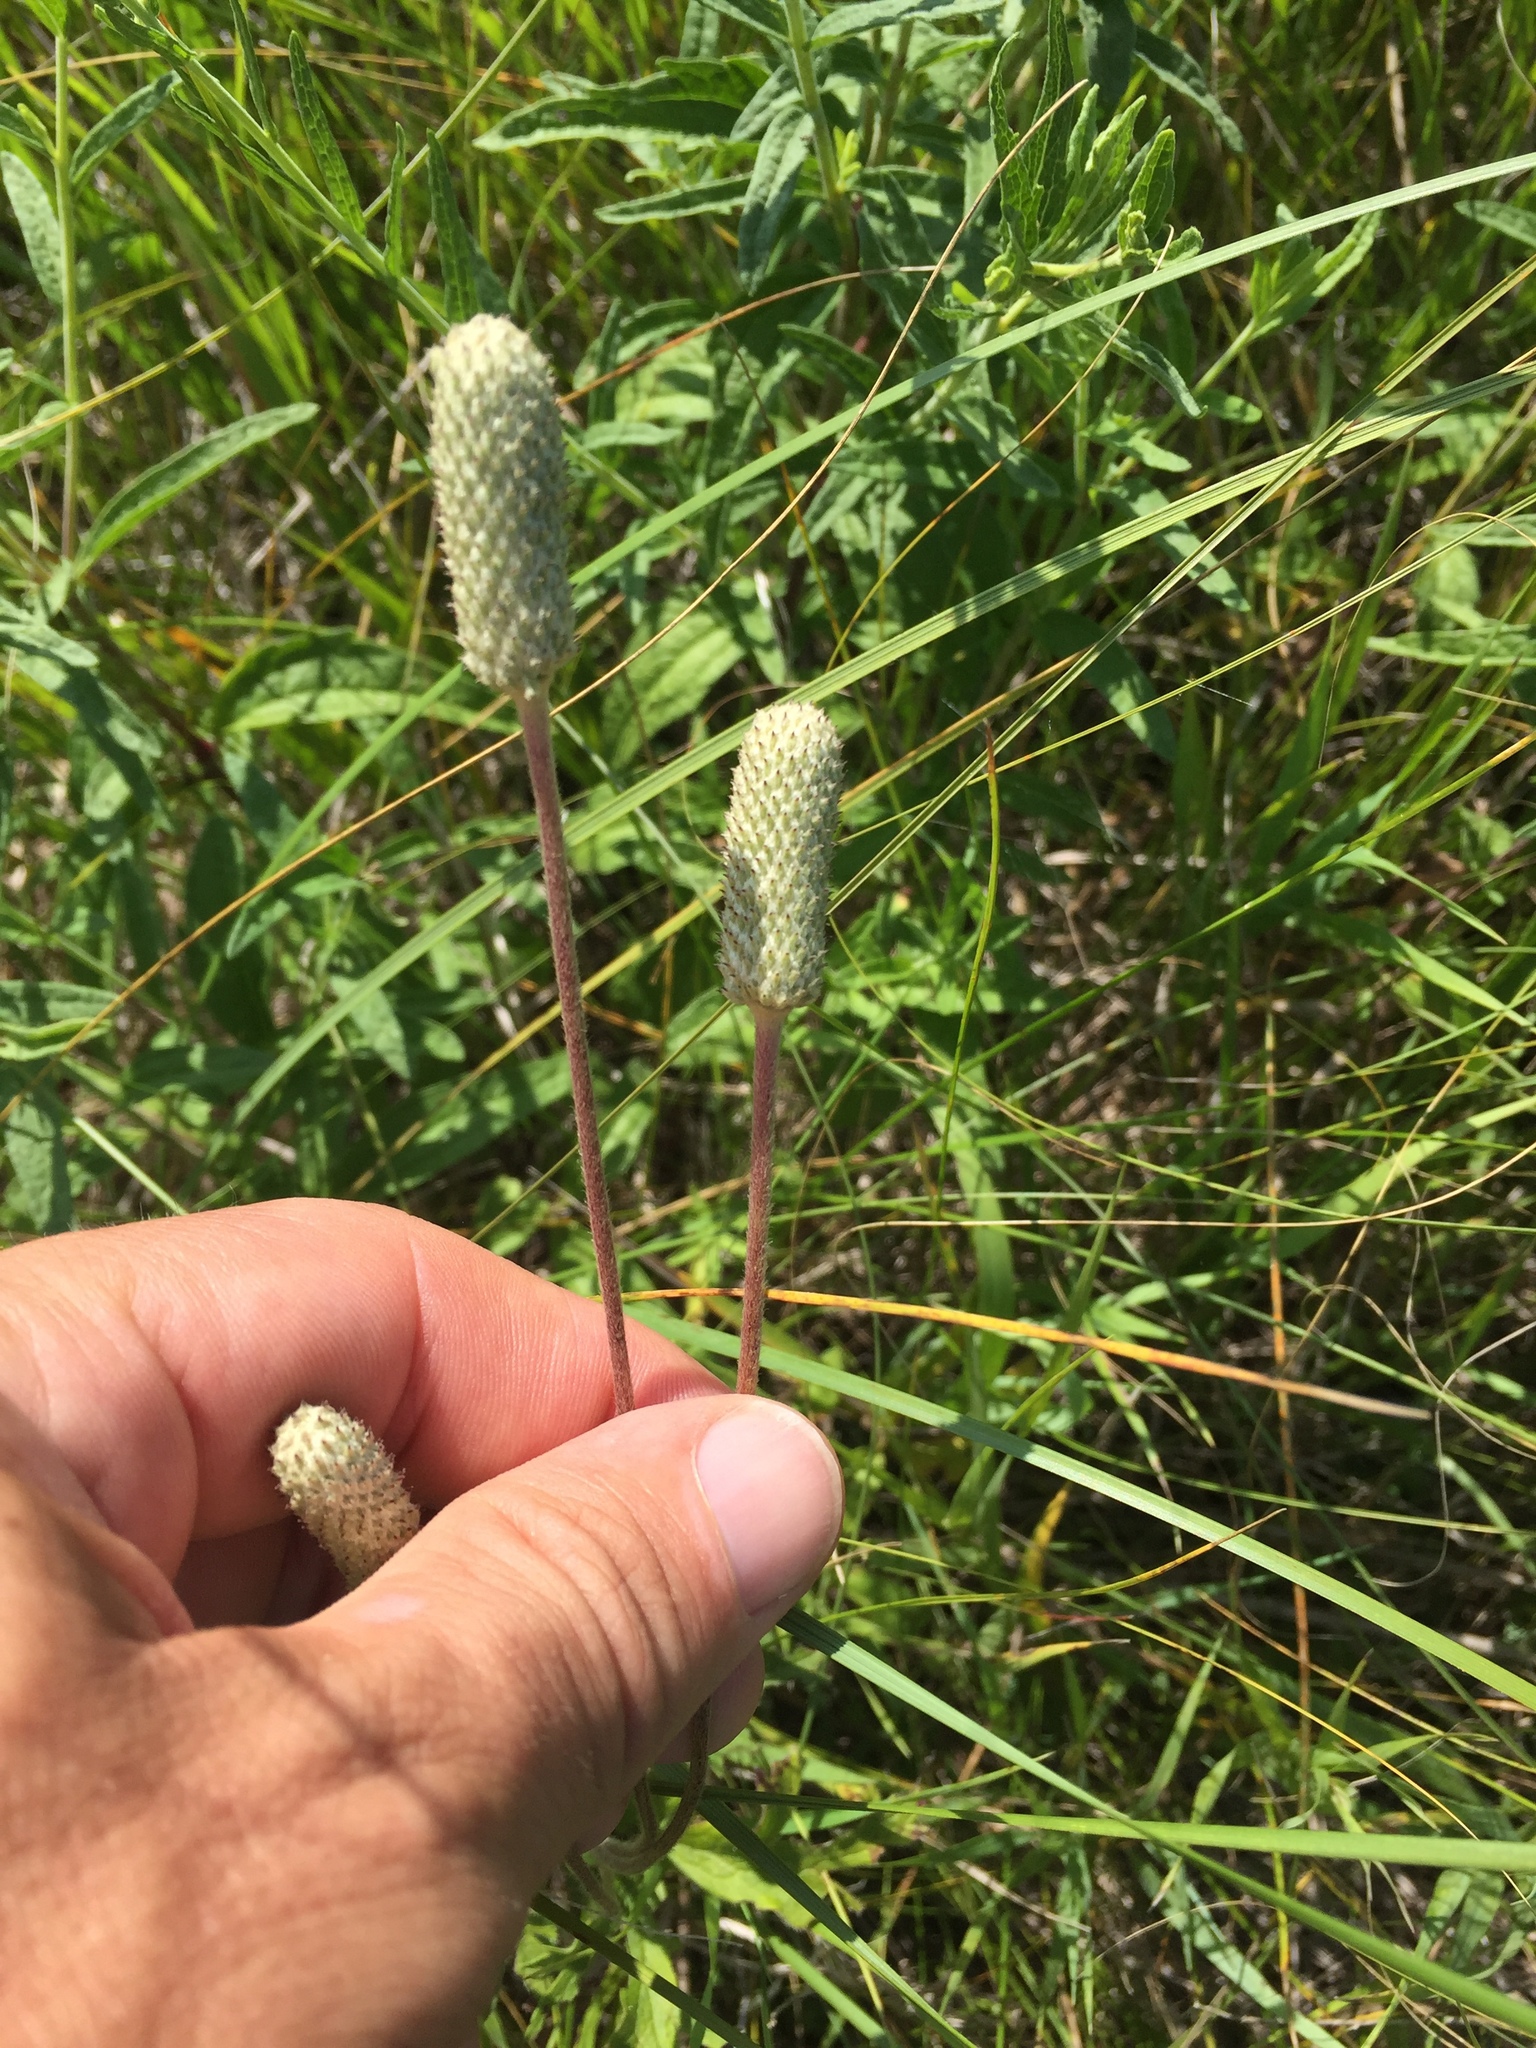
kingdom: Plantae
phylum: Tracheophyta
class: Magnoliopsida
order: Ranunculales
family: Ranunculaceae
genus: Anemone
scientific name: Anemone cylindrica
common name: Candle anemone
